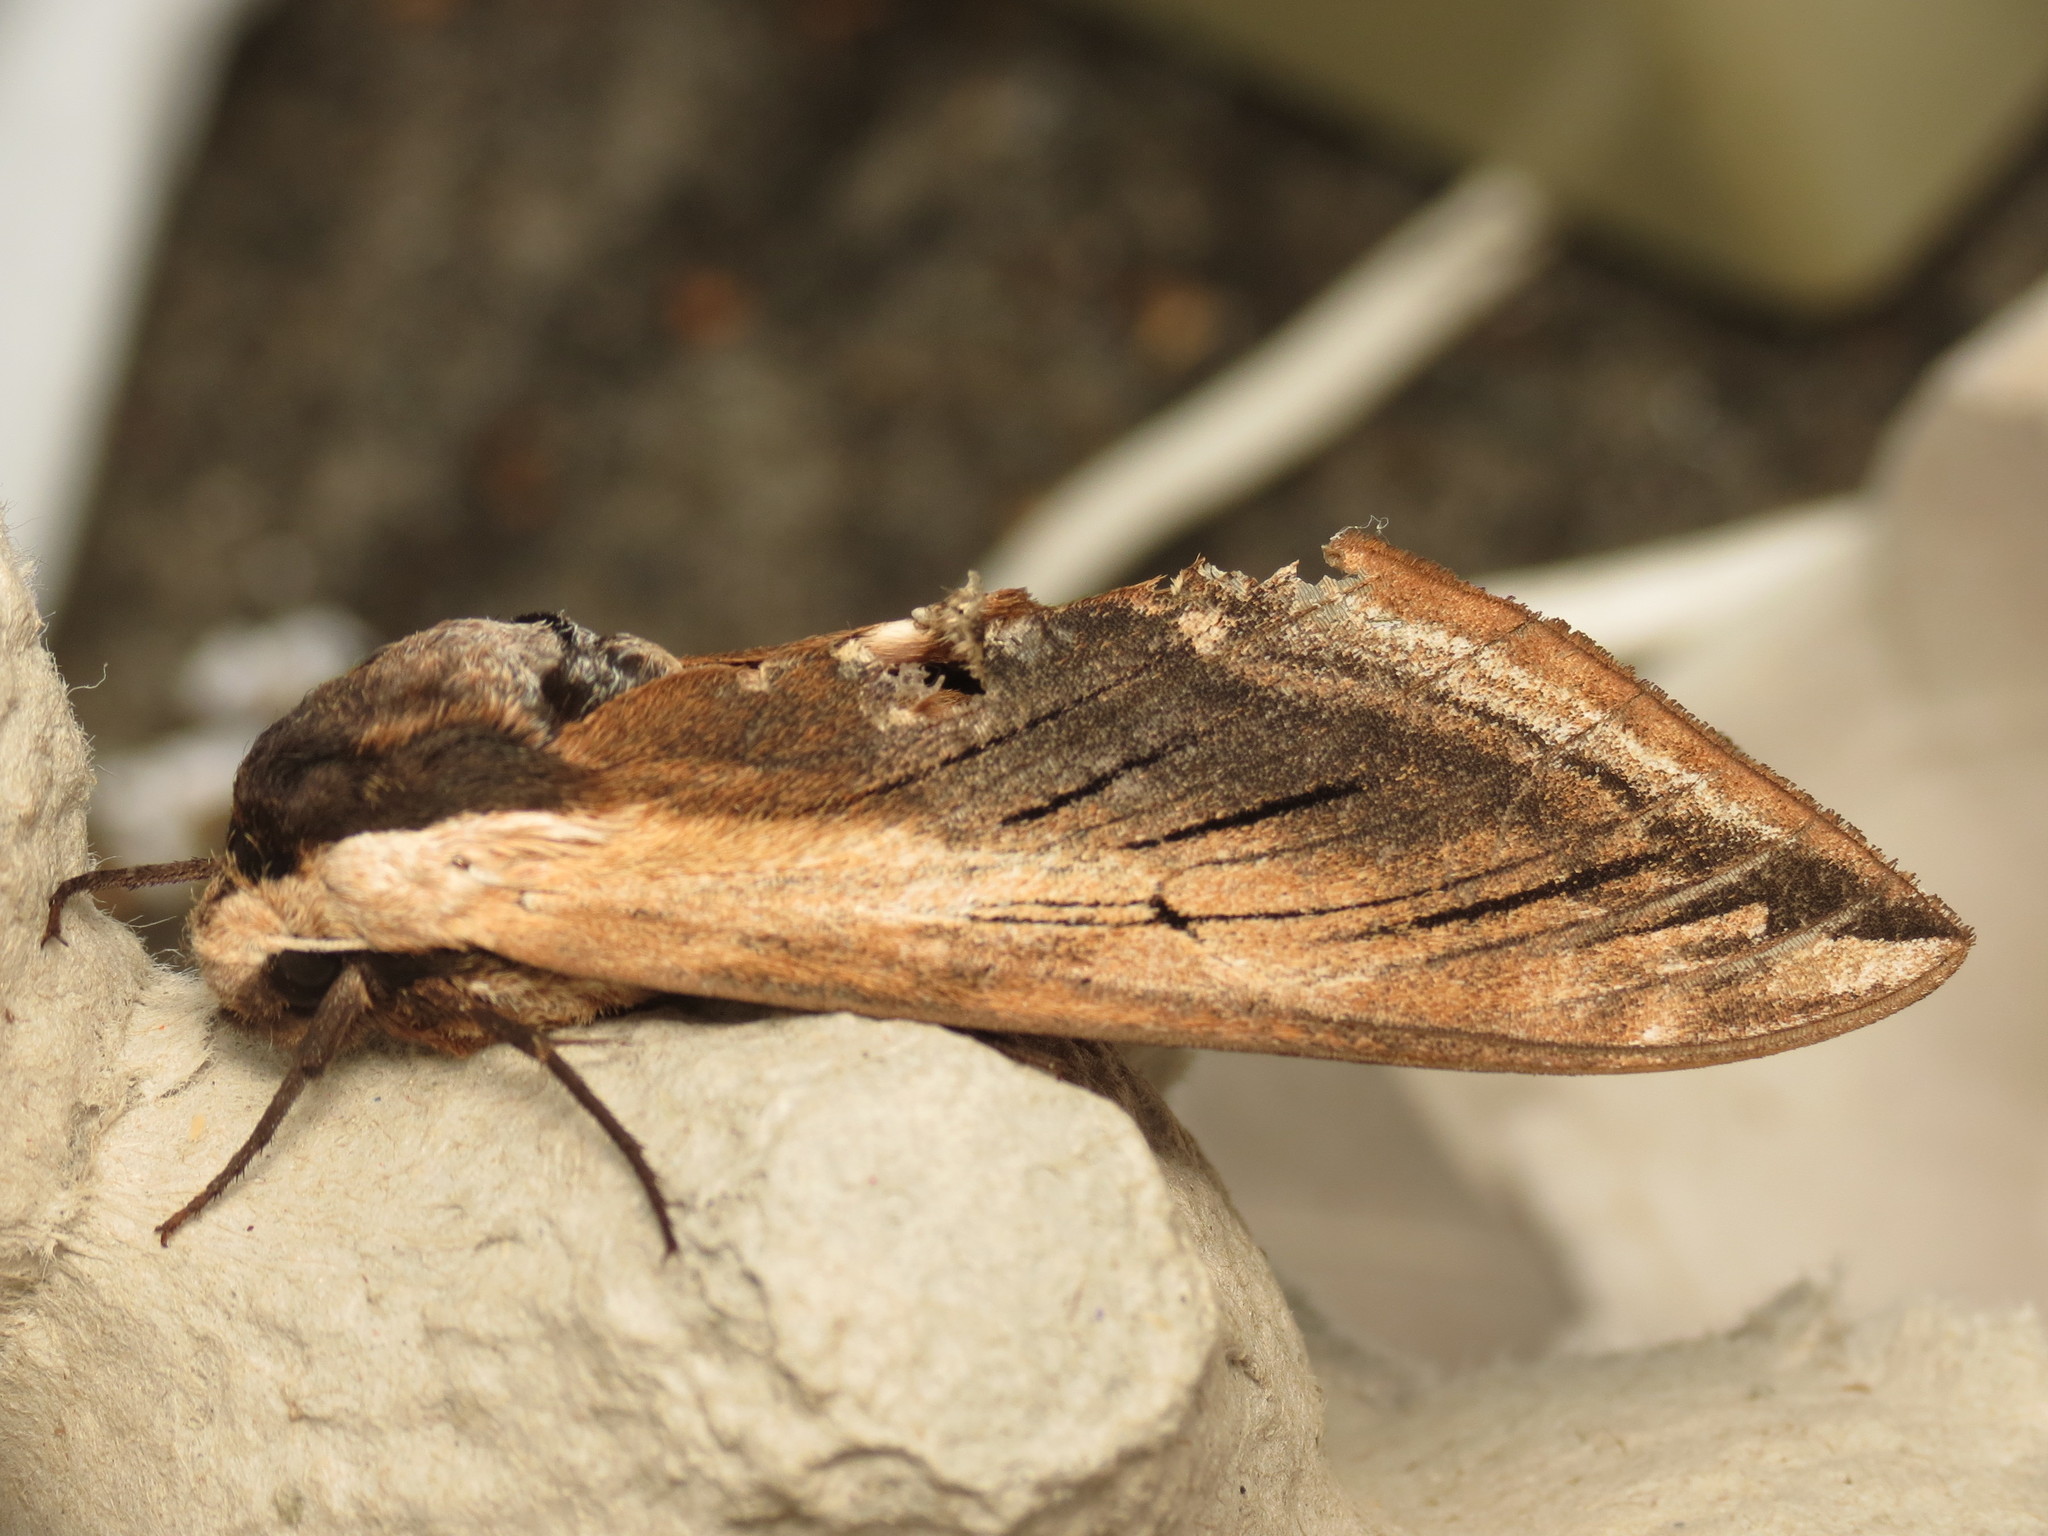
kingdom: Animalia
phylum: Arthropoda
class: Insecta
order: Lepidoptera
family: Sphingidae
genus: Sphinx
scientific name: Sphinx ligustri
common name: Privet hawk-moth
